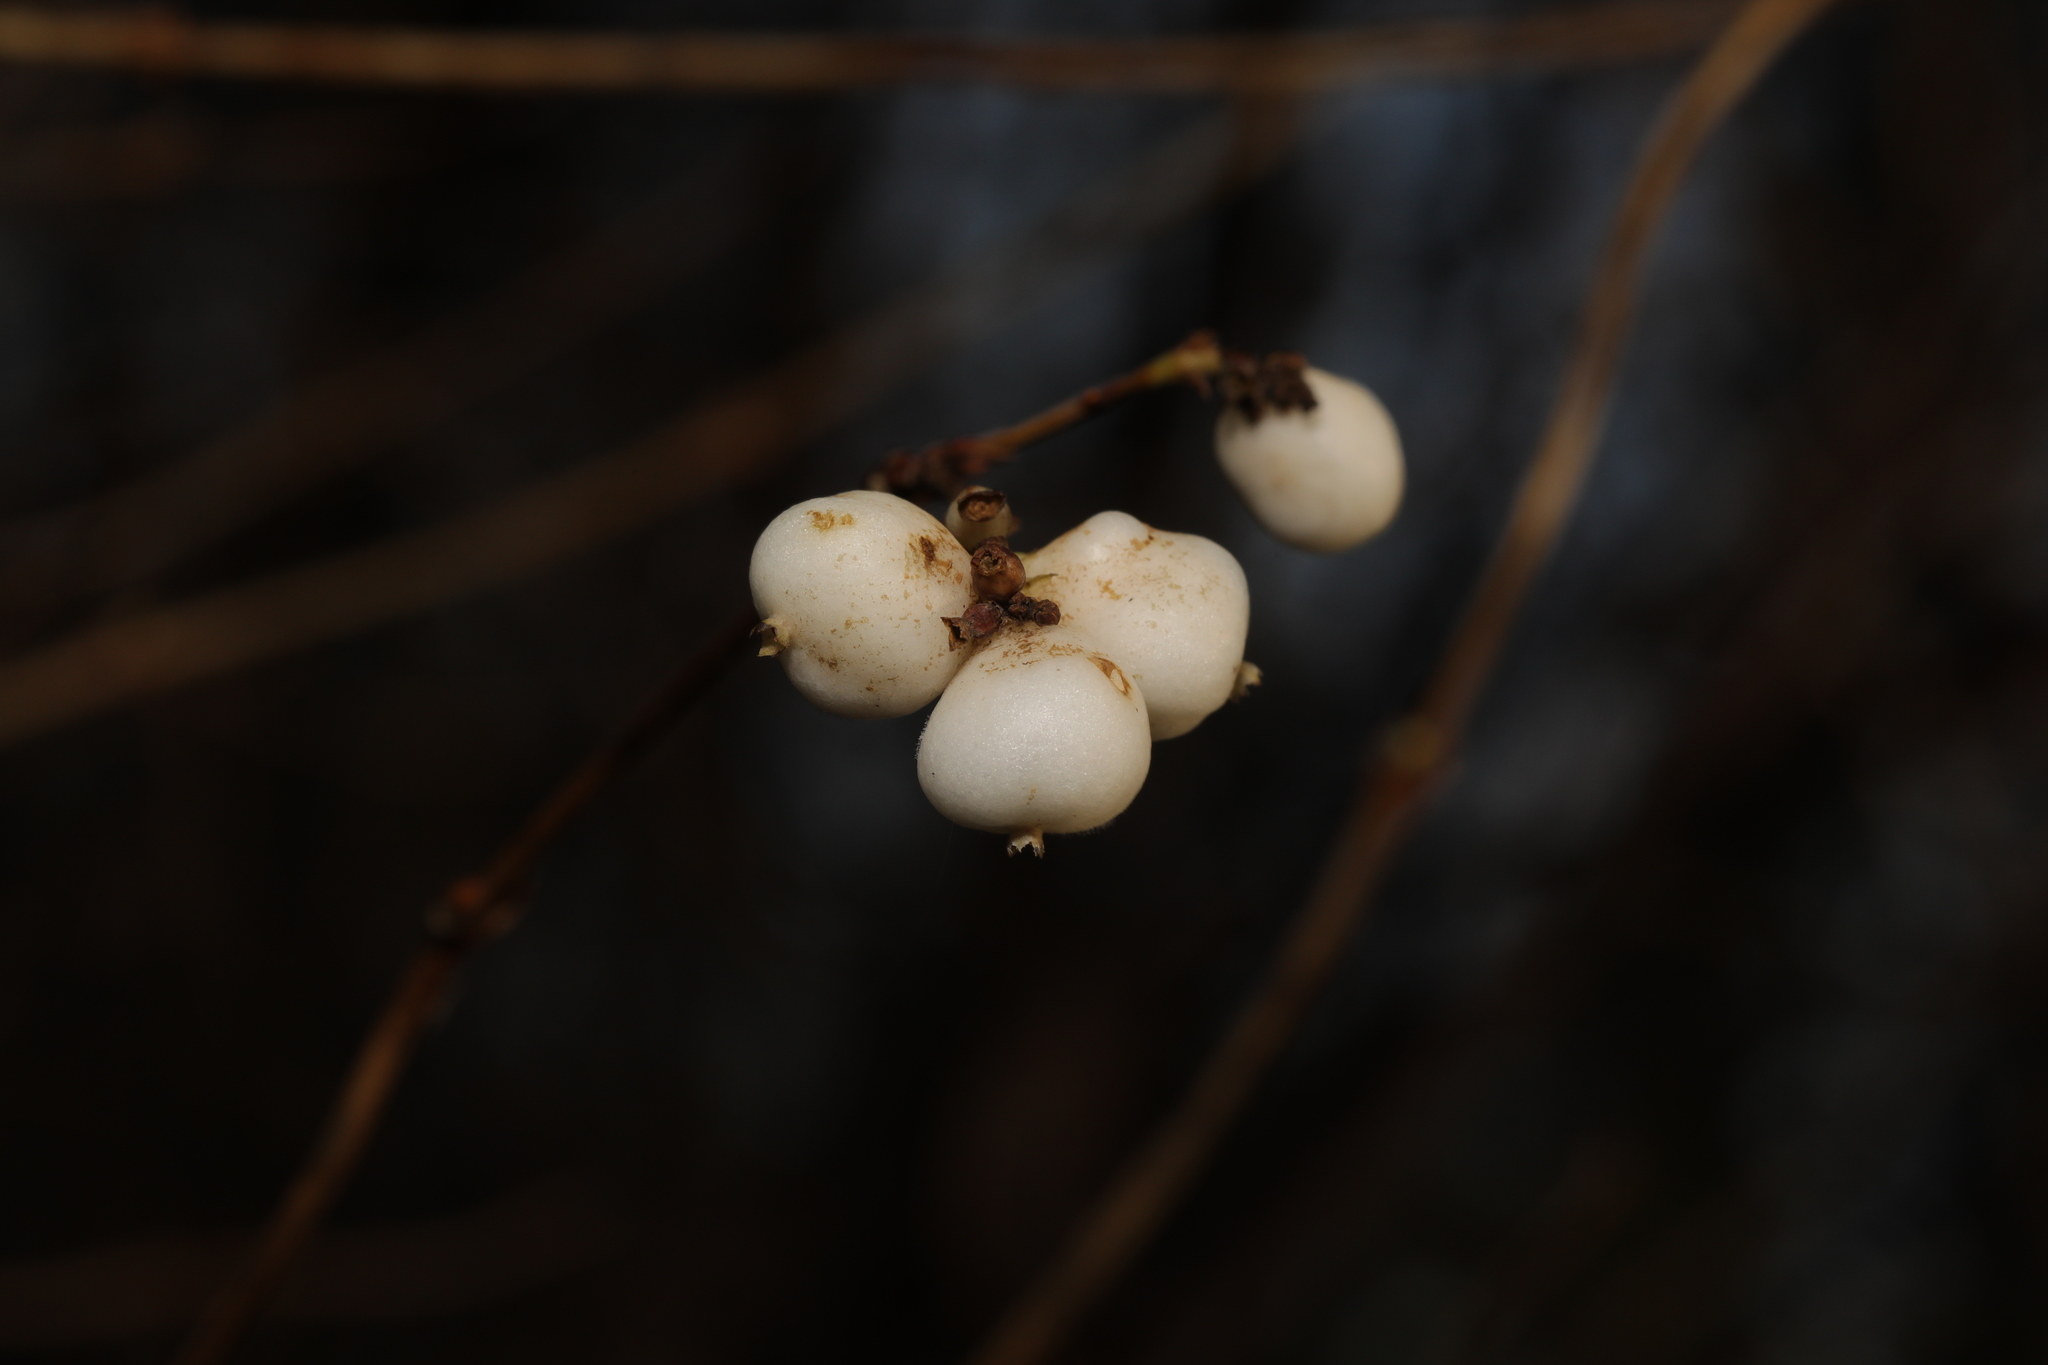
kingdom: Plantae
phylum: Tracheophyta
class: Magnoliopsida
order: Dipsacales
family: Caprifoliaceae
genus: Symphoricarpos
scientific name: Symphoricarpos albus
